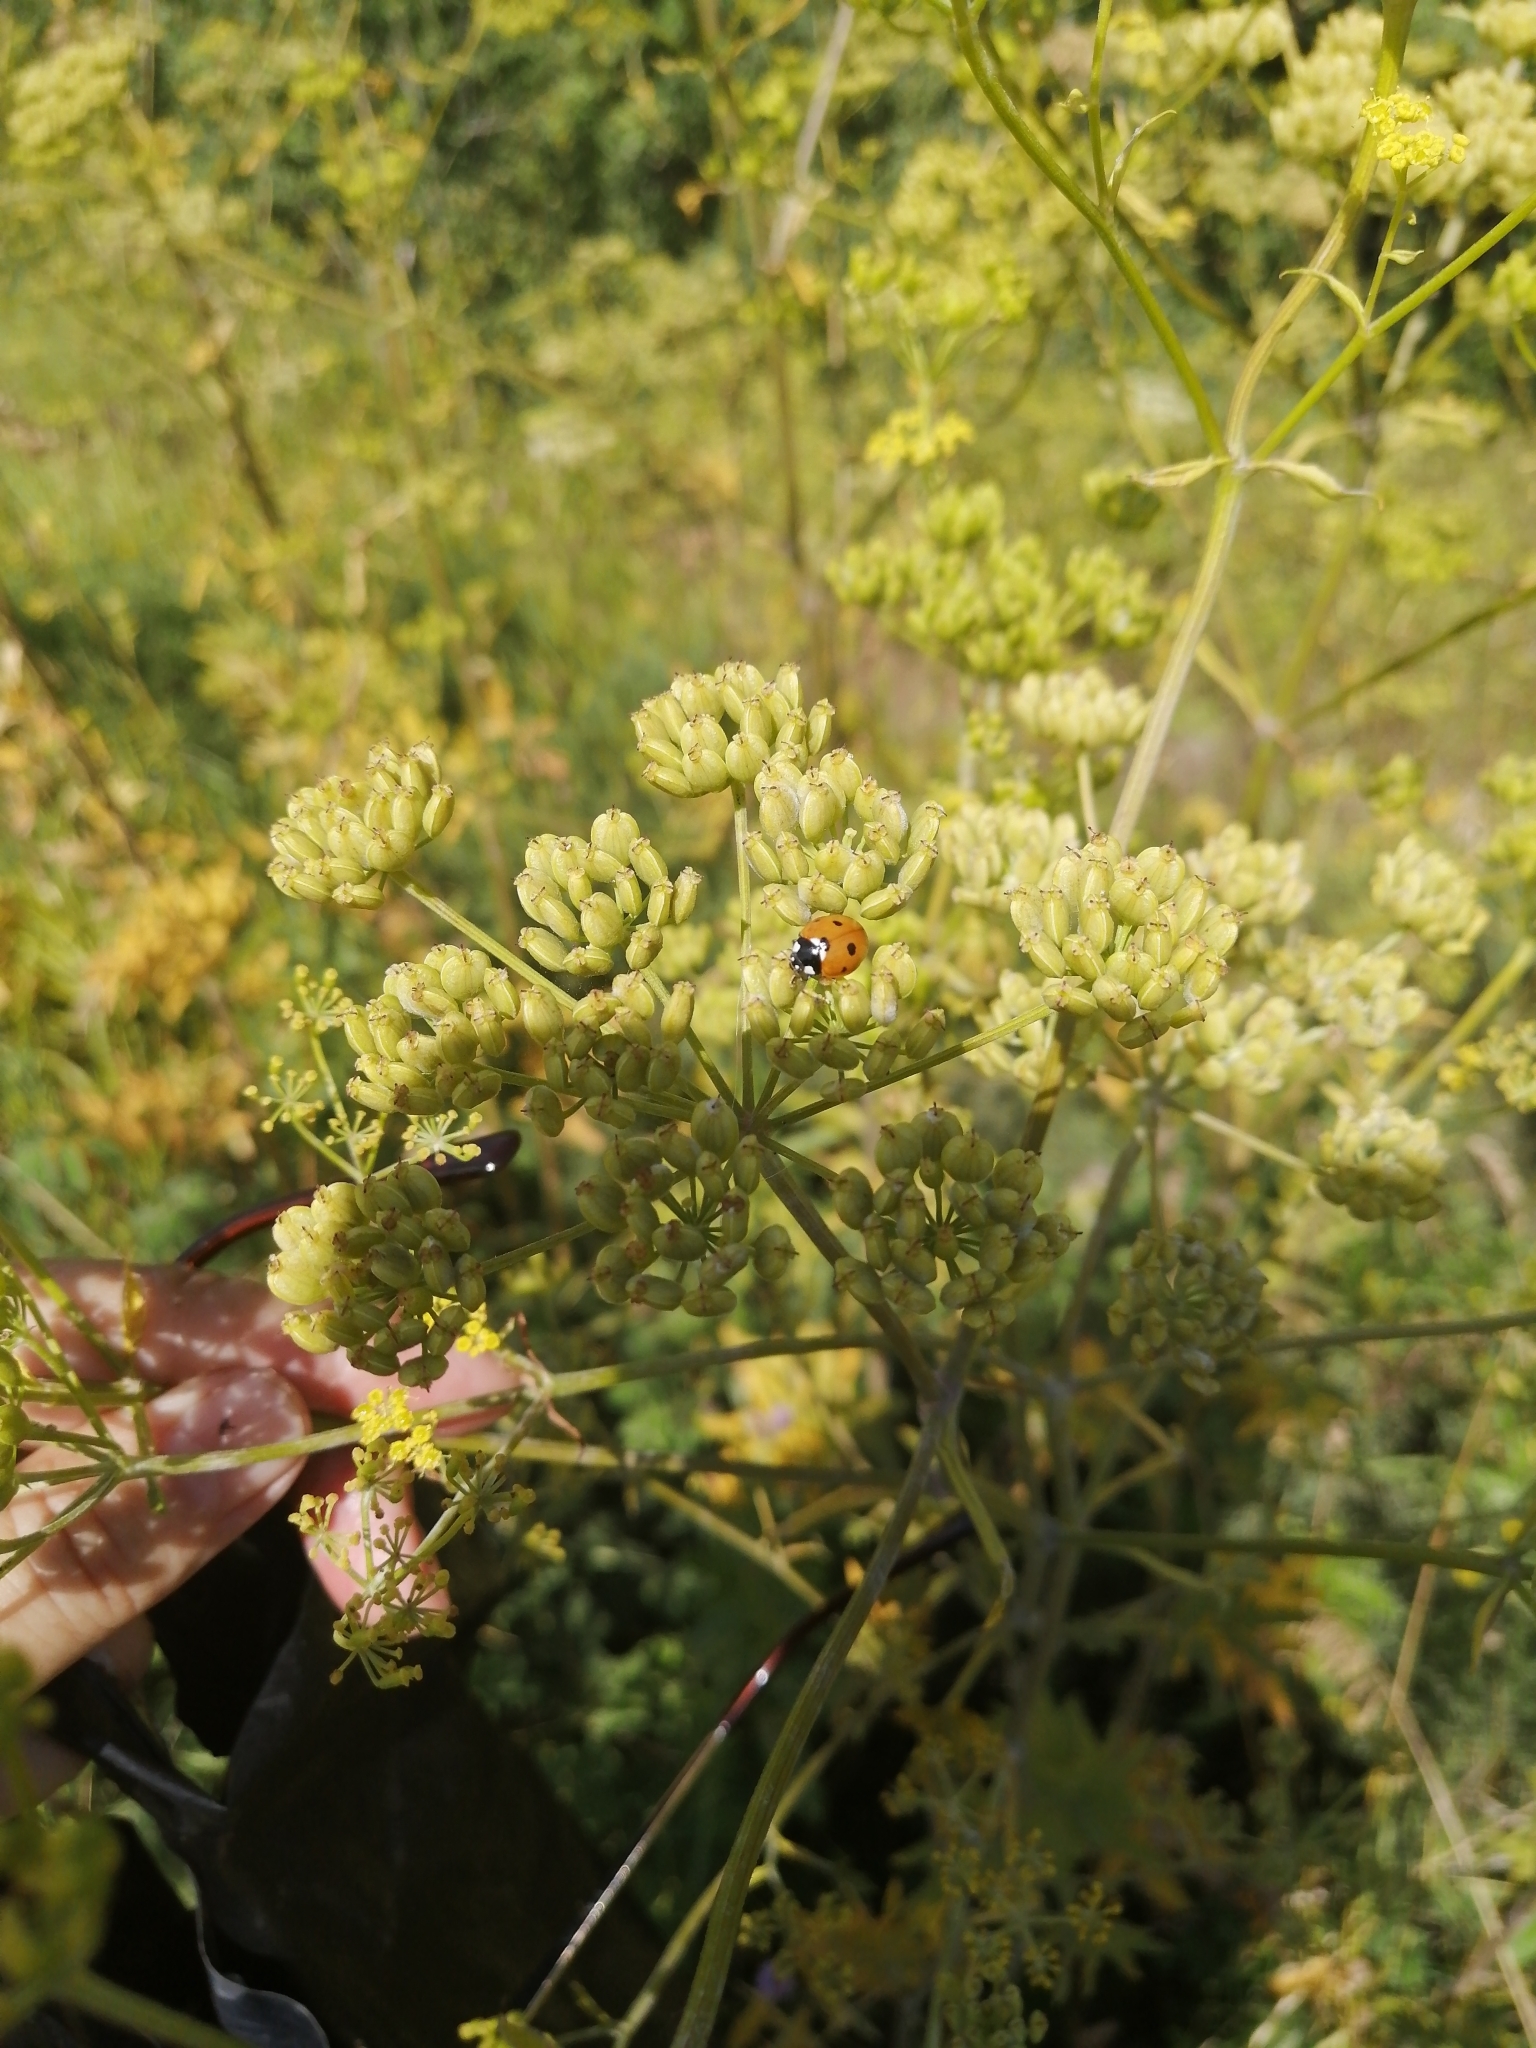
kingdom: Animalia
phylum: Arthropoda
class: Insecta
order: Coleoptera
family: Coccinellidae
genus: Coccinella
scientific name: Coccinella septempunctata
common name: Sevenspotted lady beetle
